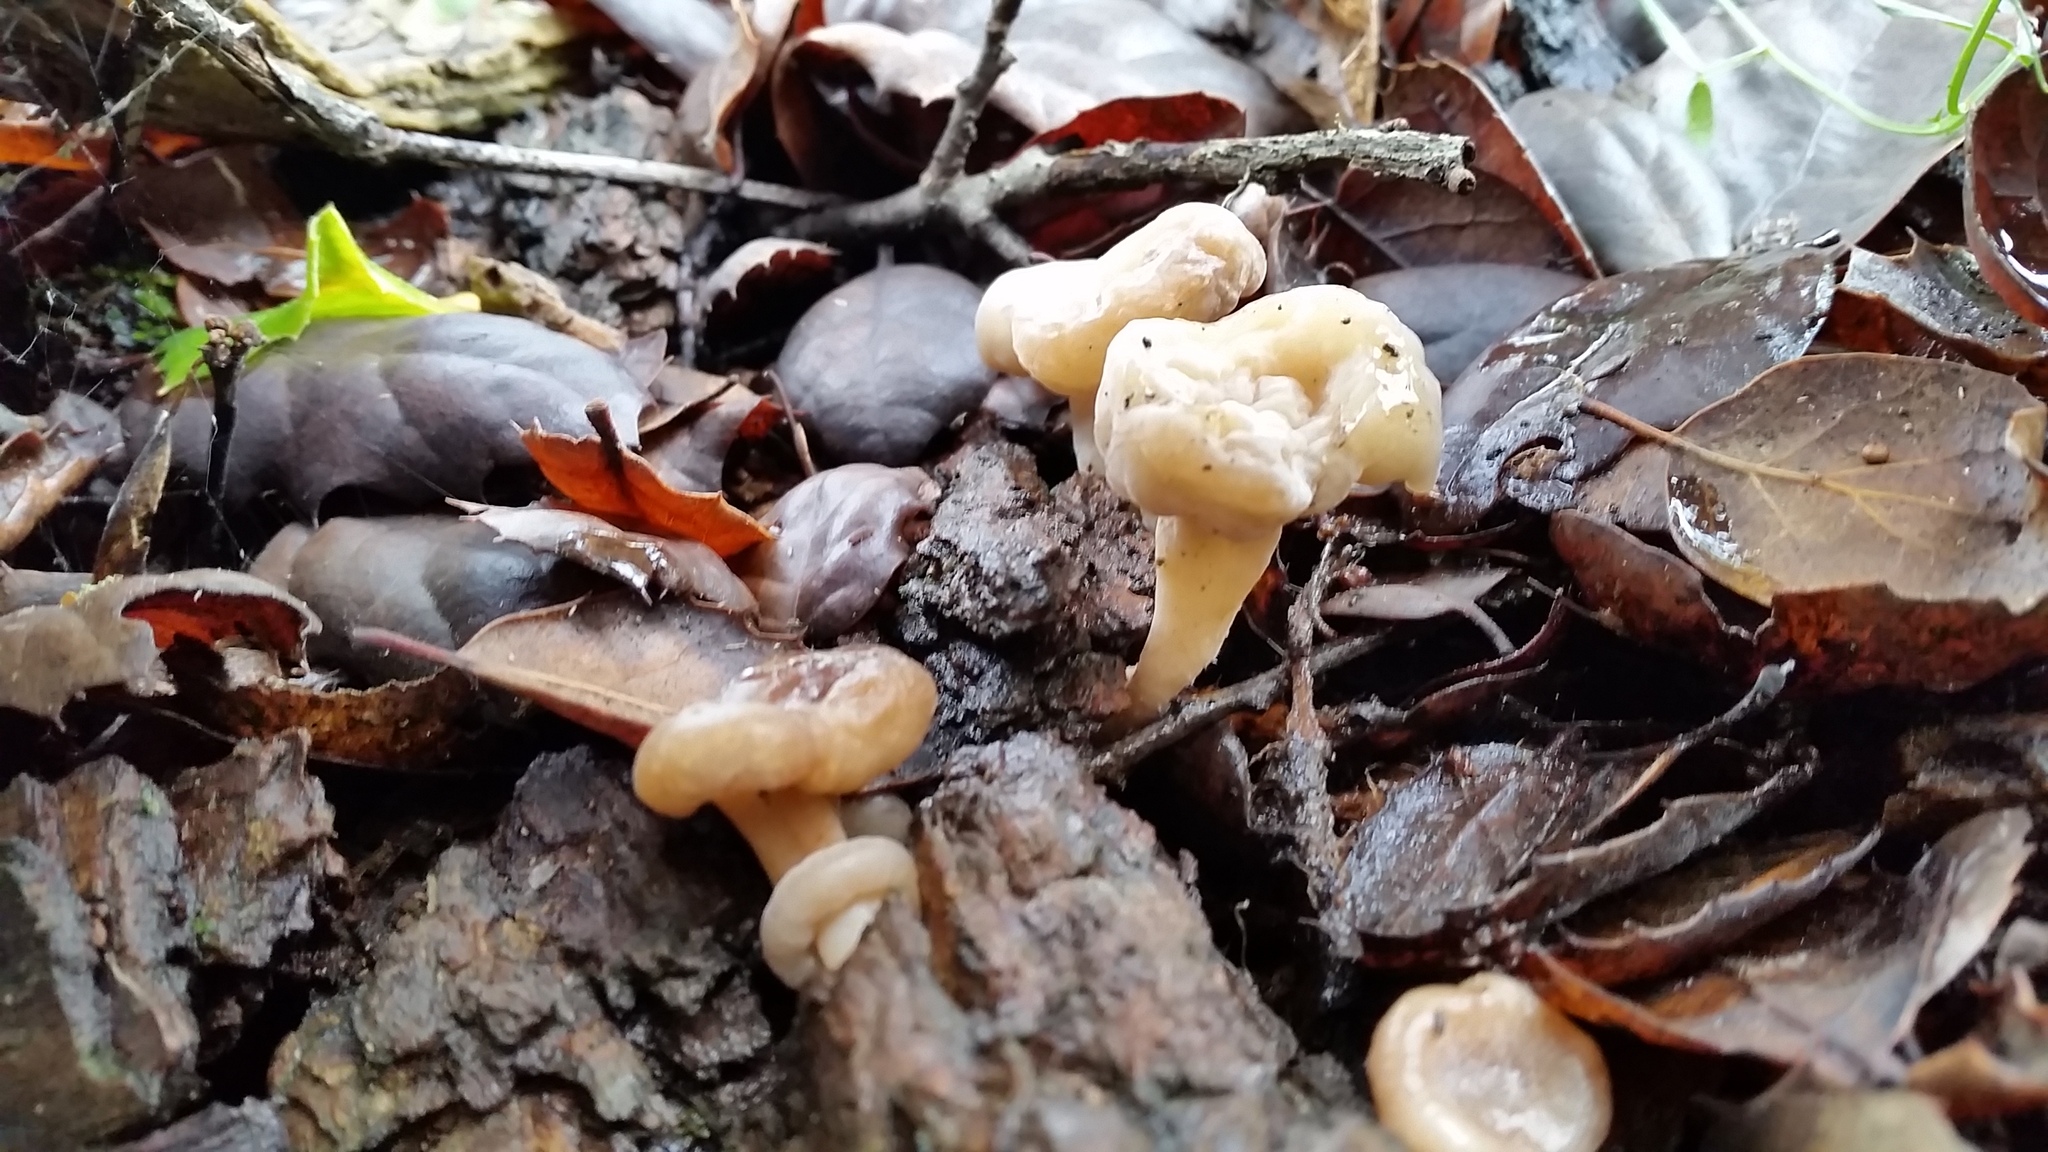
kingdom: Fungi
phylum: Ascomycota
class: Leotiomycetes
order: Rhytismatales
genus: Mycosymbioces
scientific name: Mycosymbioces mycenophila
